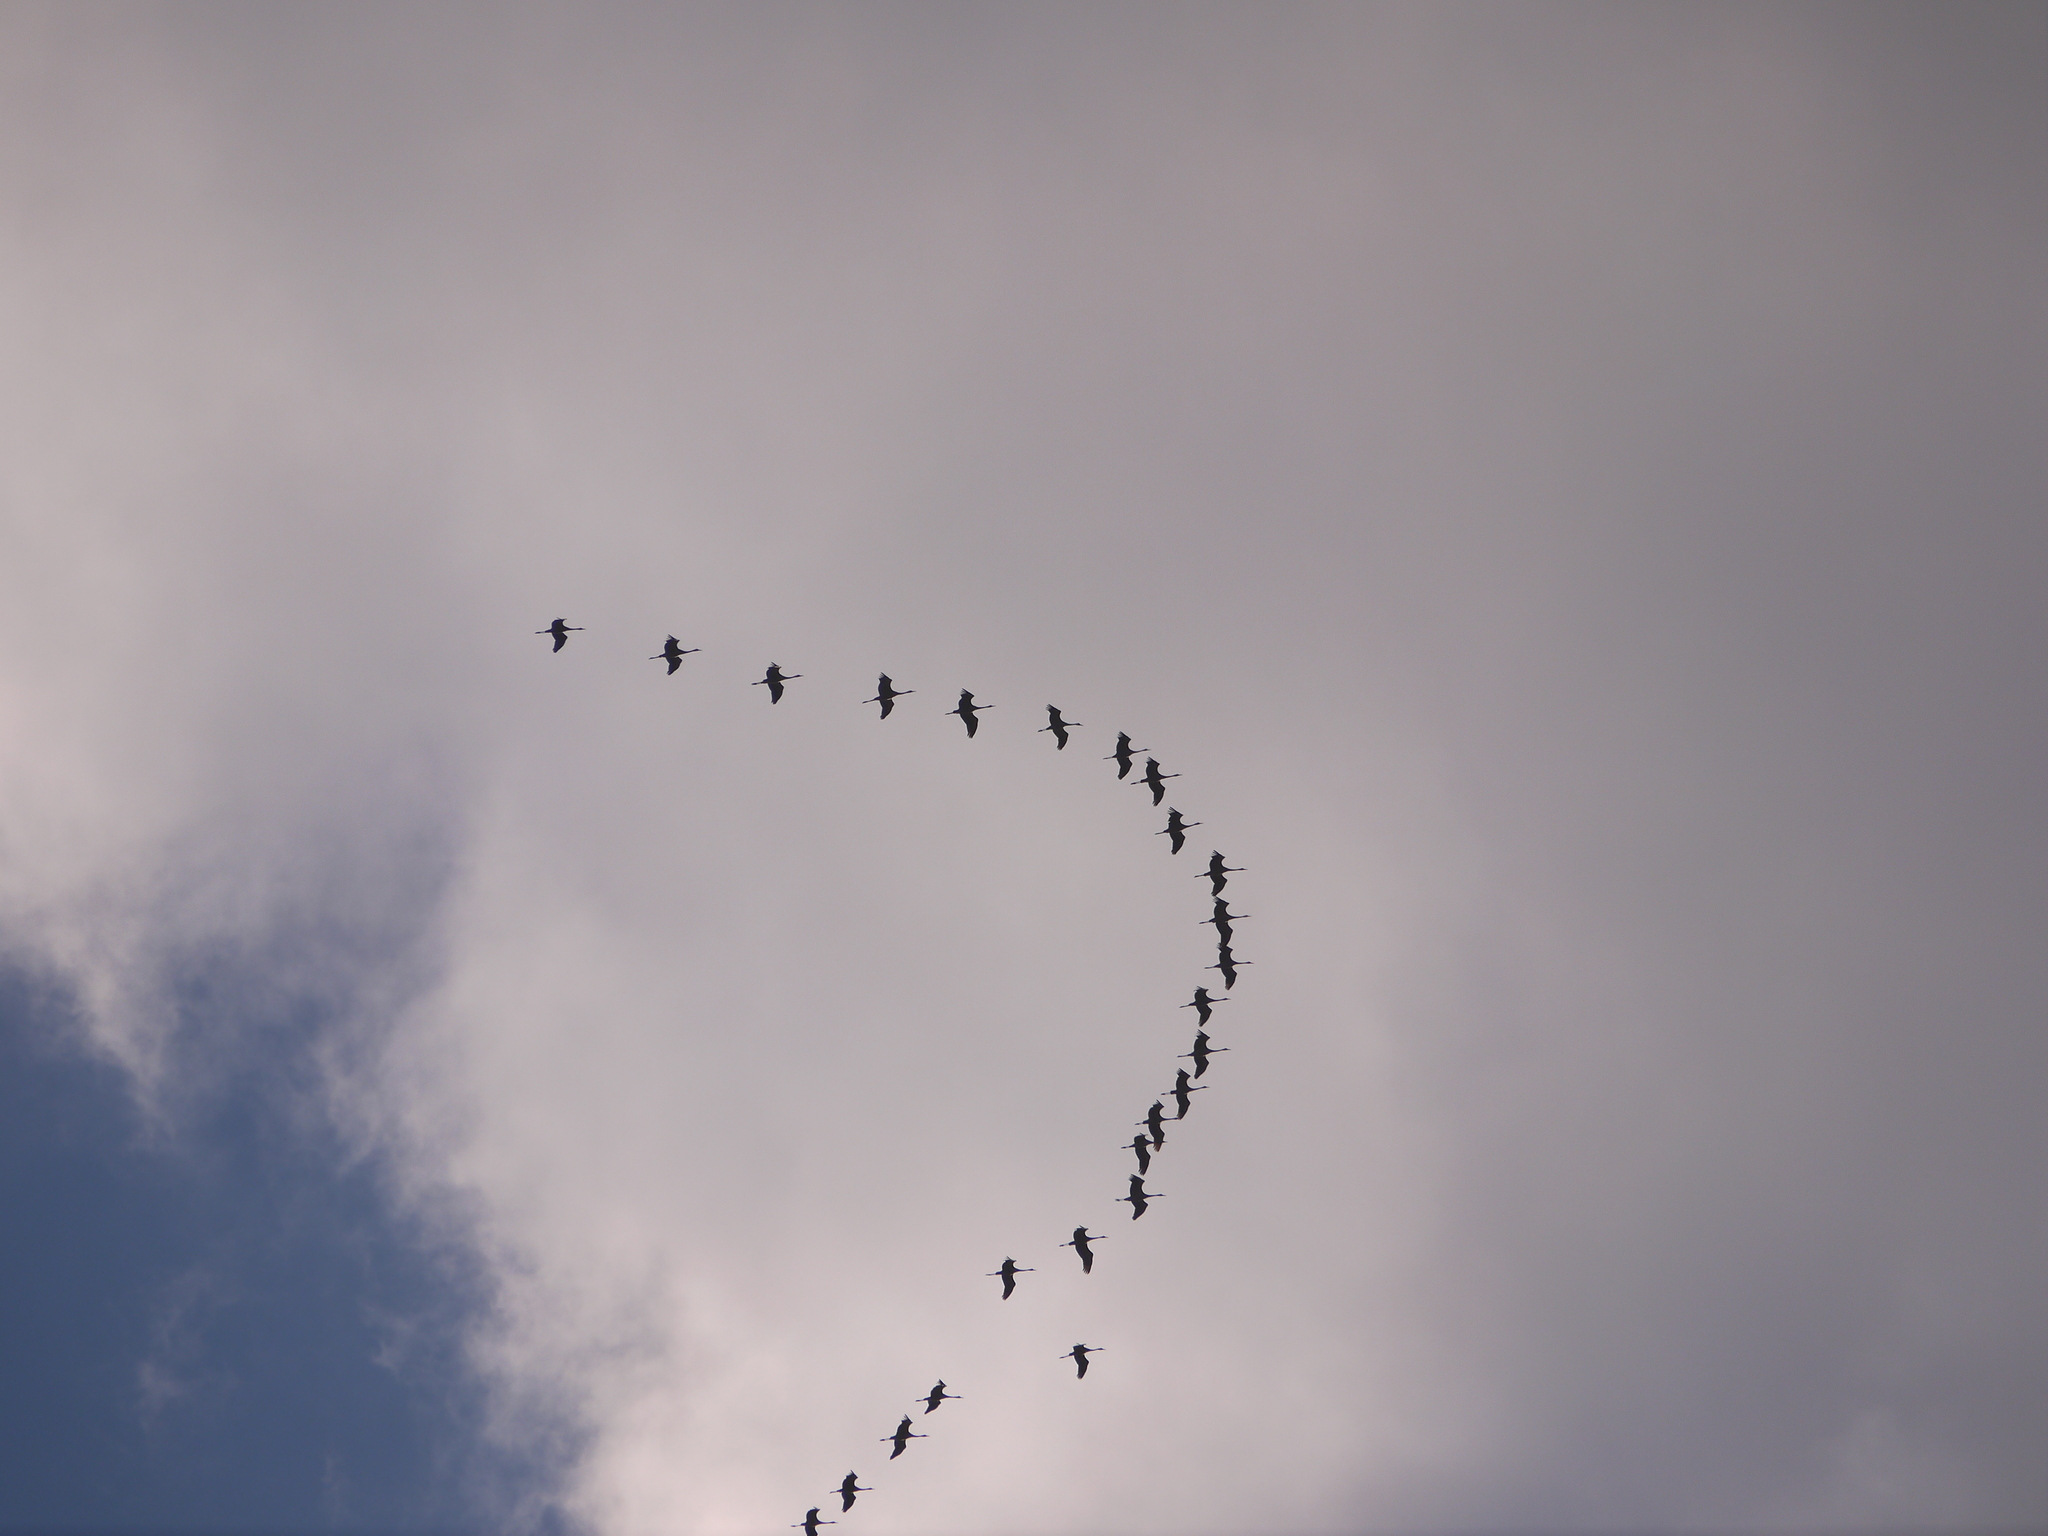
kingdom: Animalia
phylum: Chordata
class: Aves
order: Gruiformes
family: Gruidae
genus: Grus
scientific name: Grus grus
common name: Common crane
